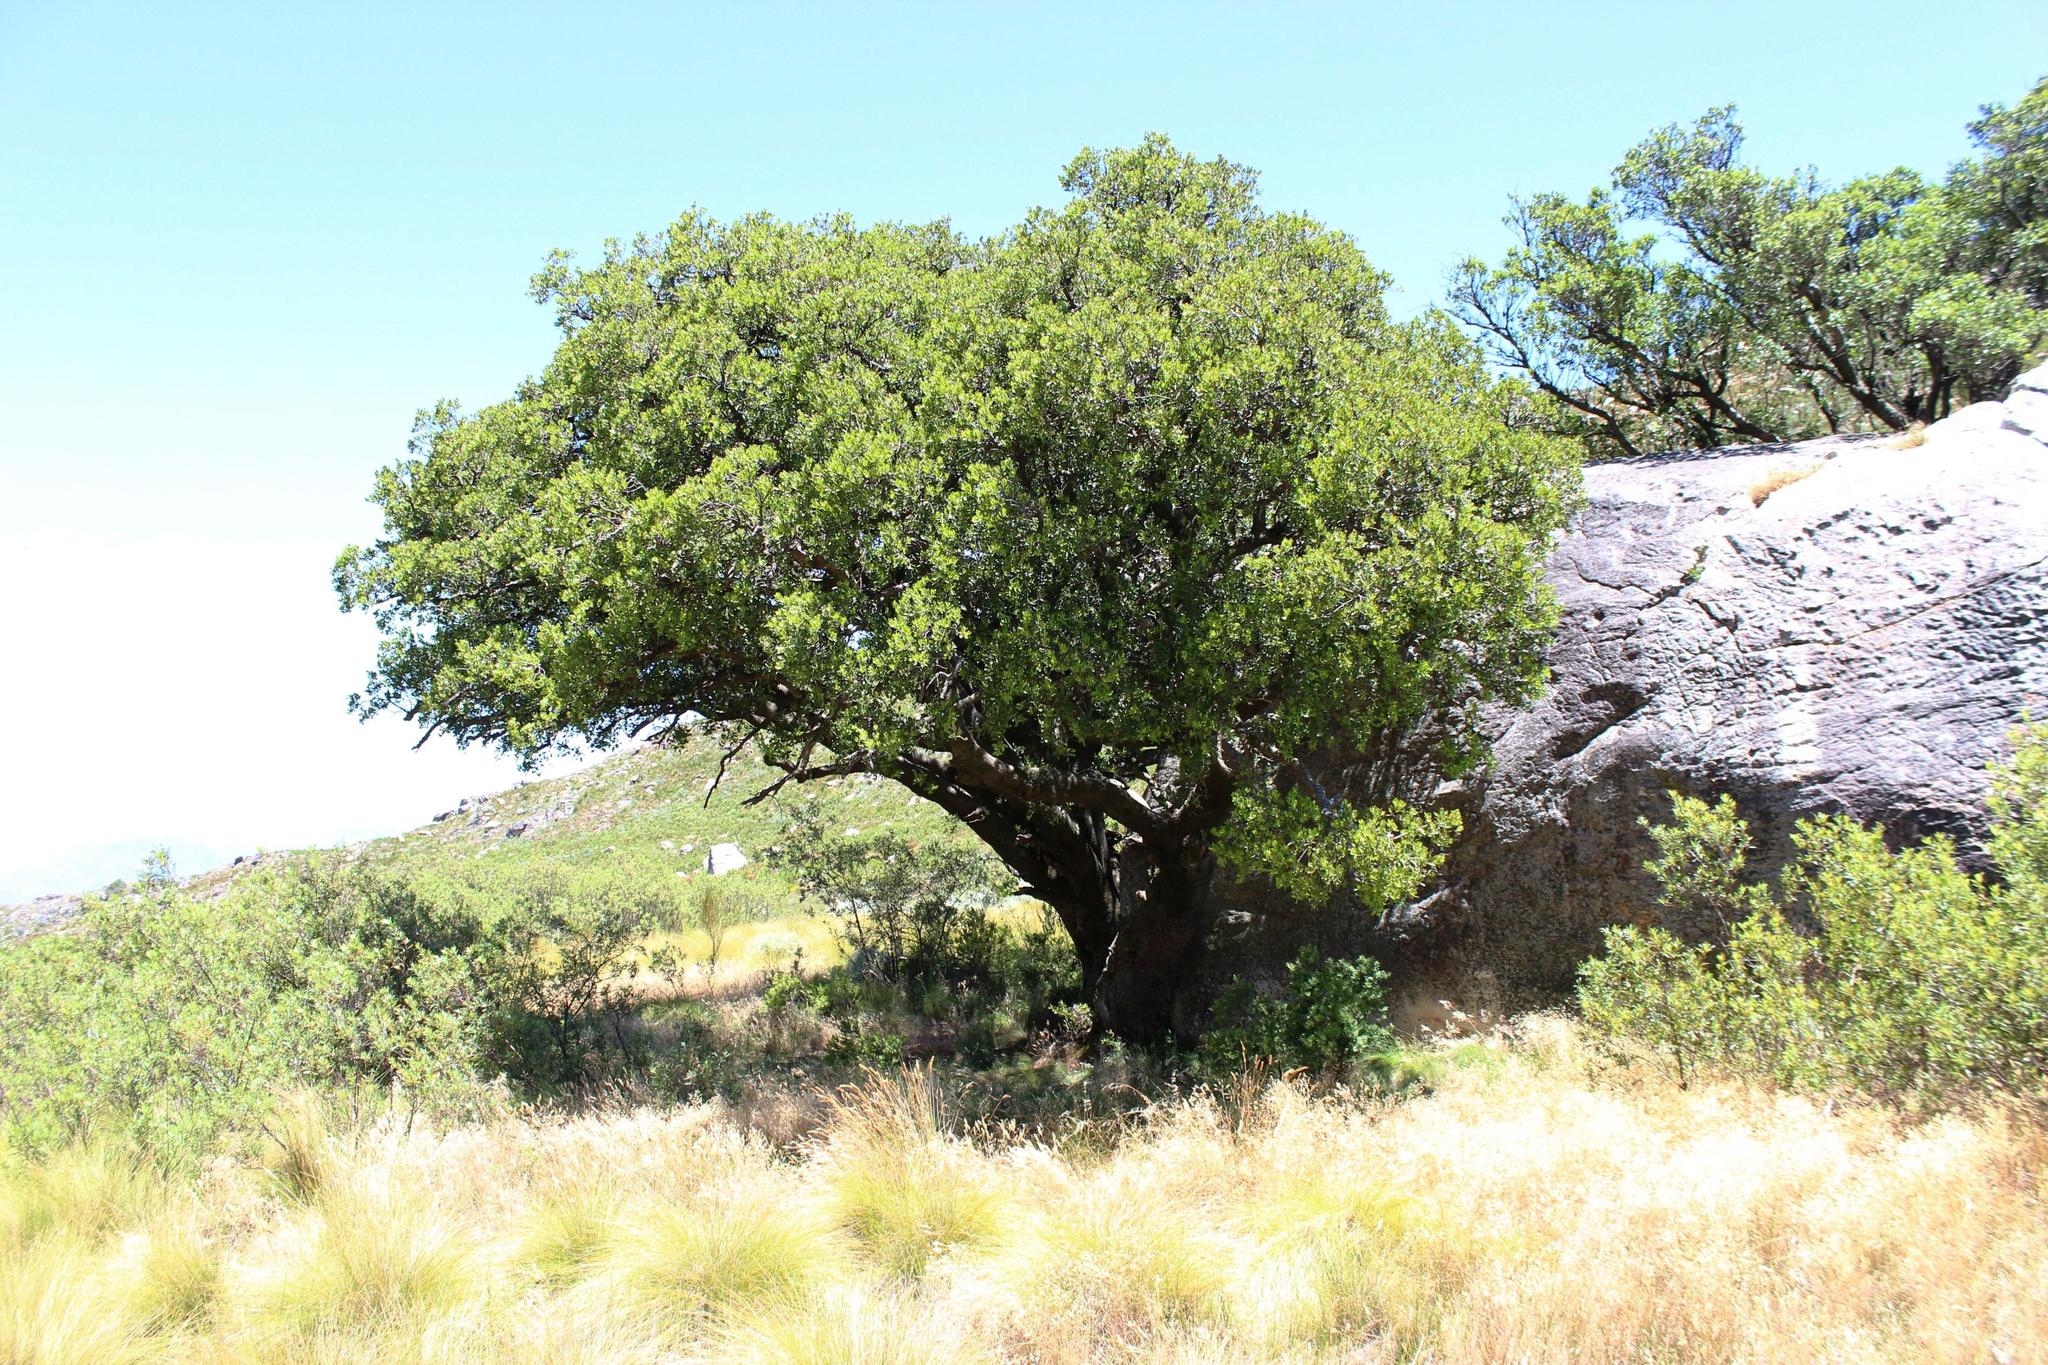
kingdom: Plantae
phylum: Tracheophyta
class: Magnoliopsida
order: Celastrales
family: Celastraceae
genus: Gymnosporia
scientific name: Gymnosporia laurina
